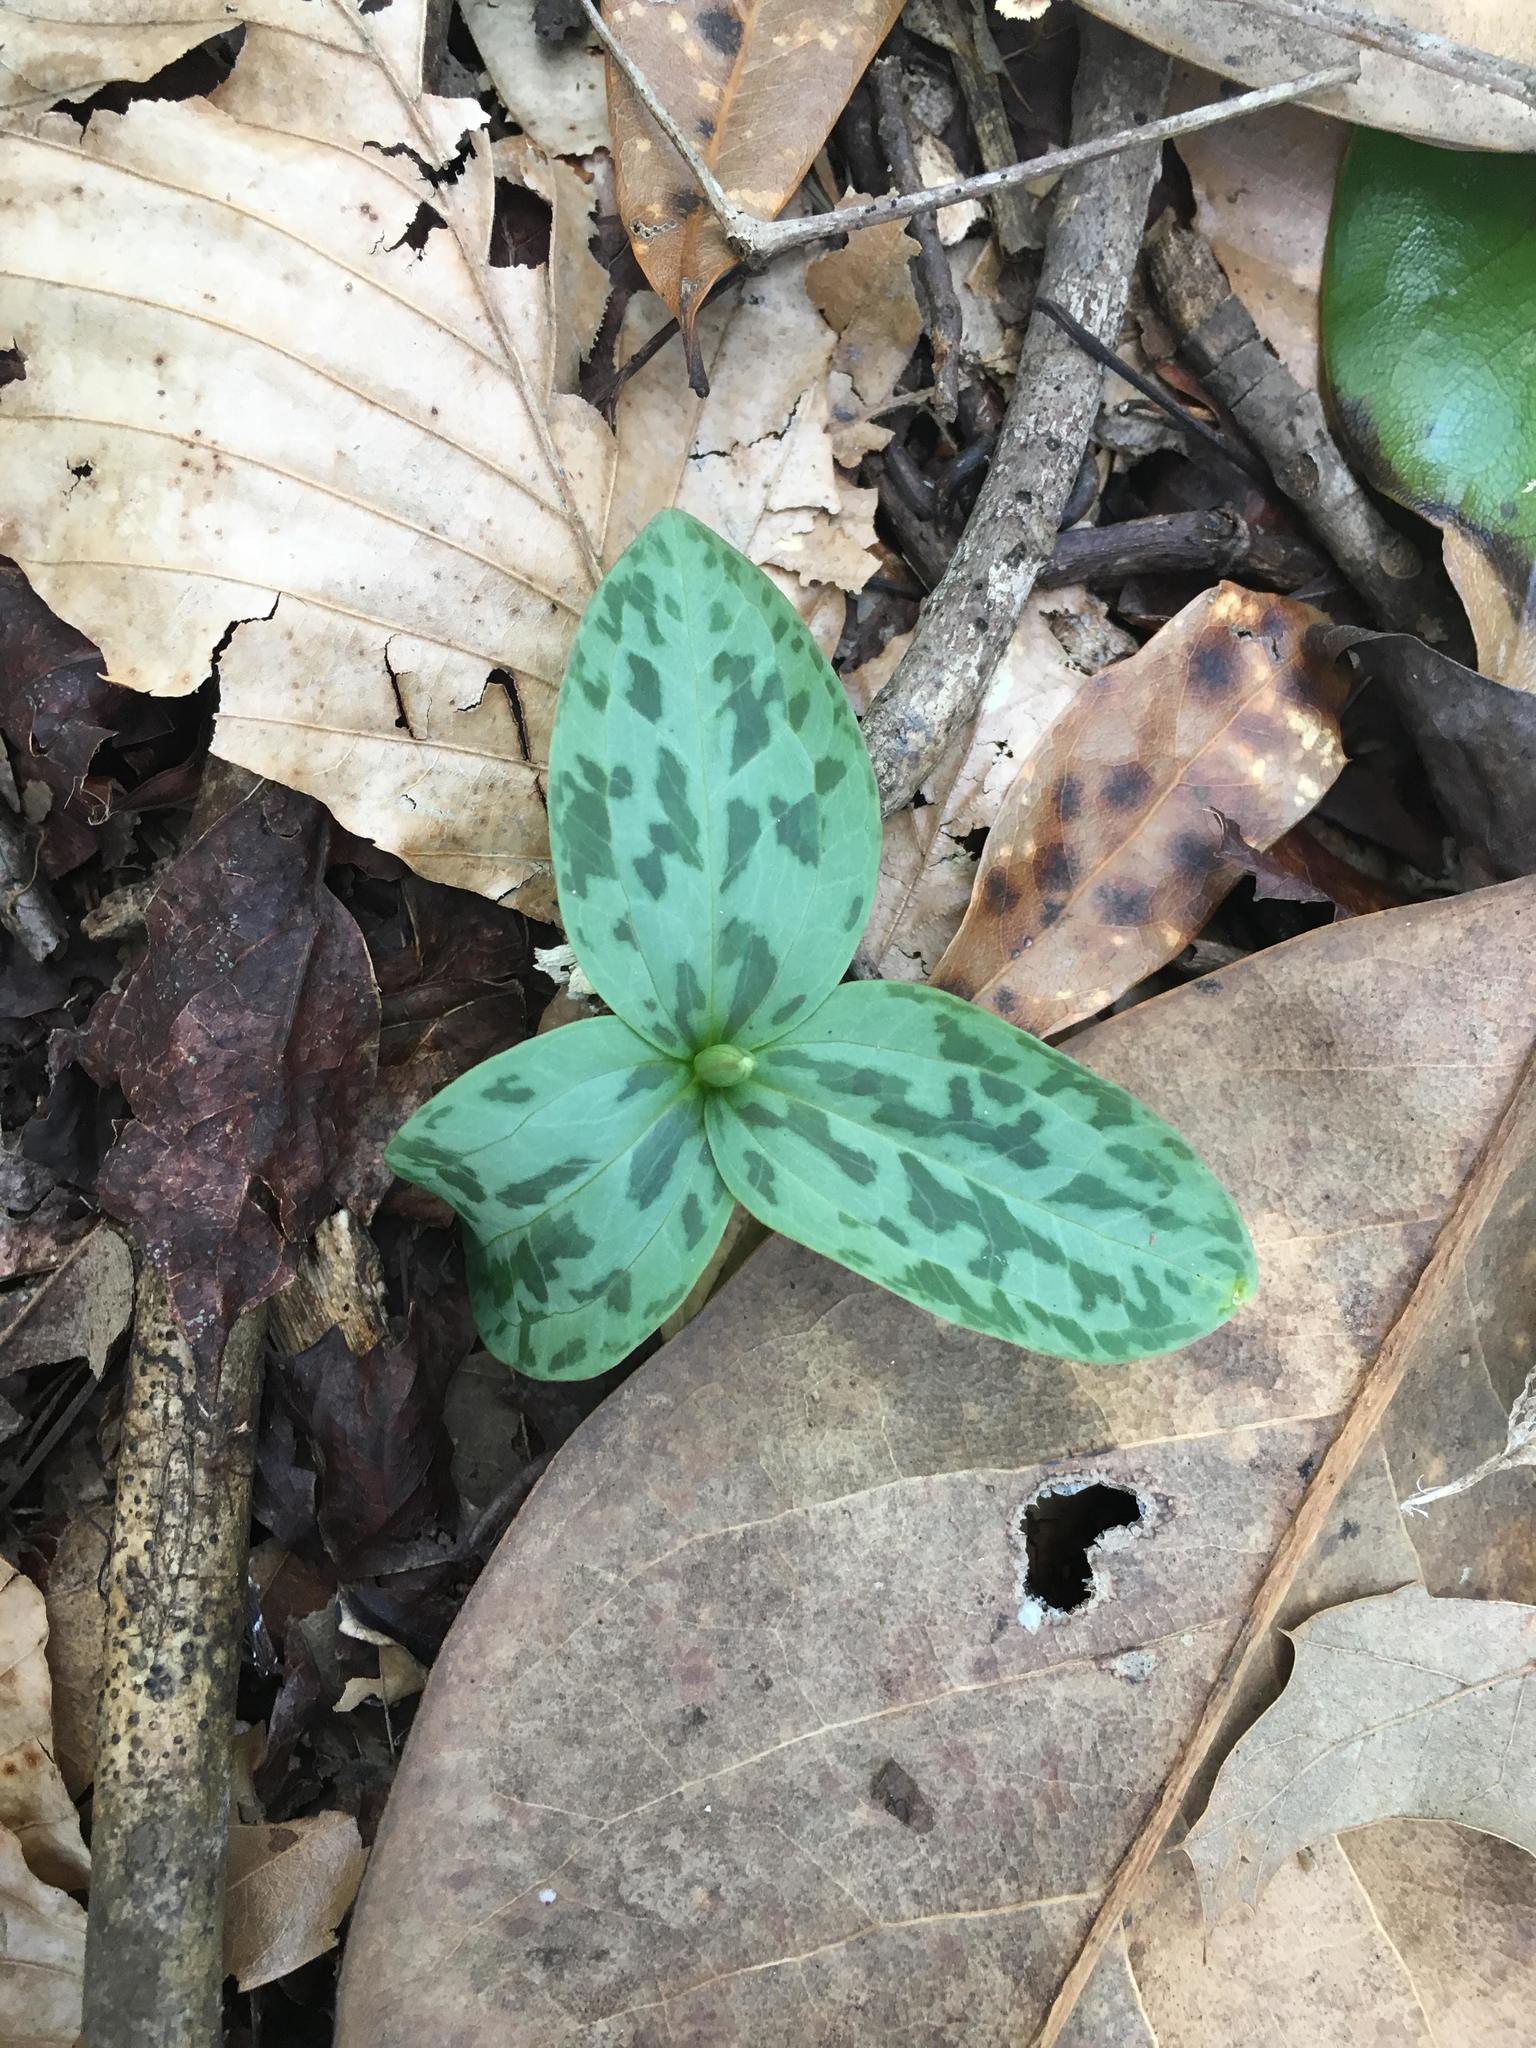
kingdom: Plantae
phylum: Tracheophyta
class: Liliopsida
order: Liliales
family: Melanthiaceae
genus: Trillium
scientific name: Trillium foetidissimum
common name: Mississippi river trillium
